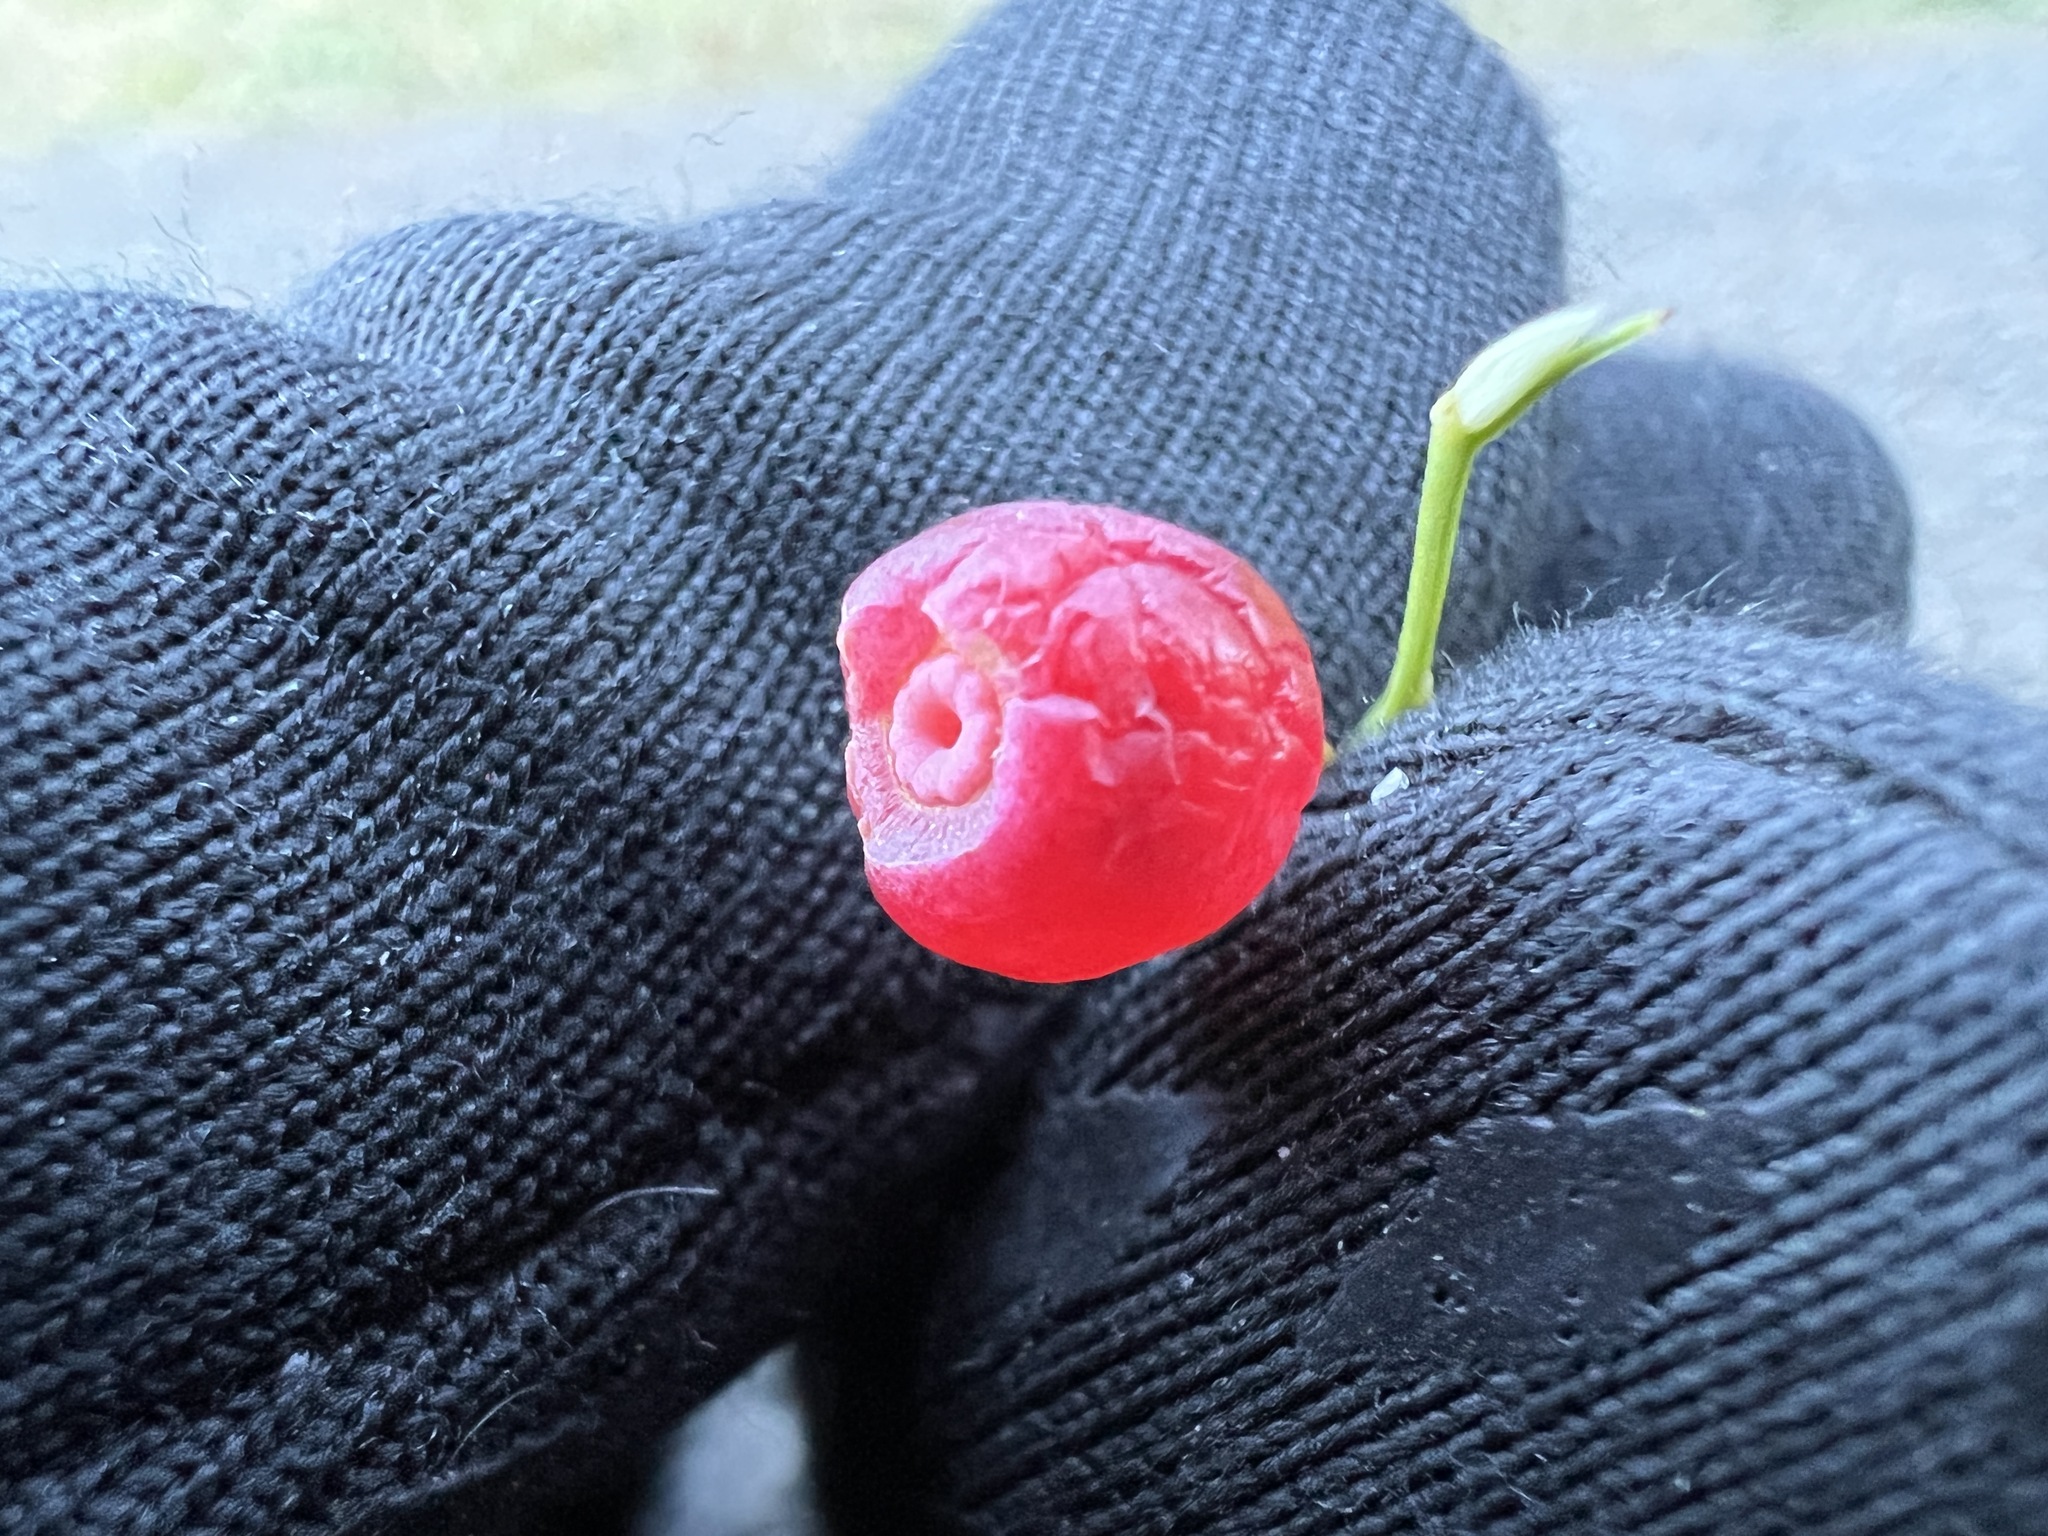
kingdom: Plantae
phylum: Tracheophyta
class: Magnoliopsida
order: Ericales
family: Ericaceae
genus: Vaccinium
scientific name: Vaccinium parvifolium
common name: Red-huckleberry
